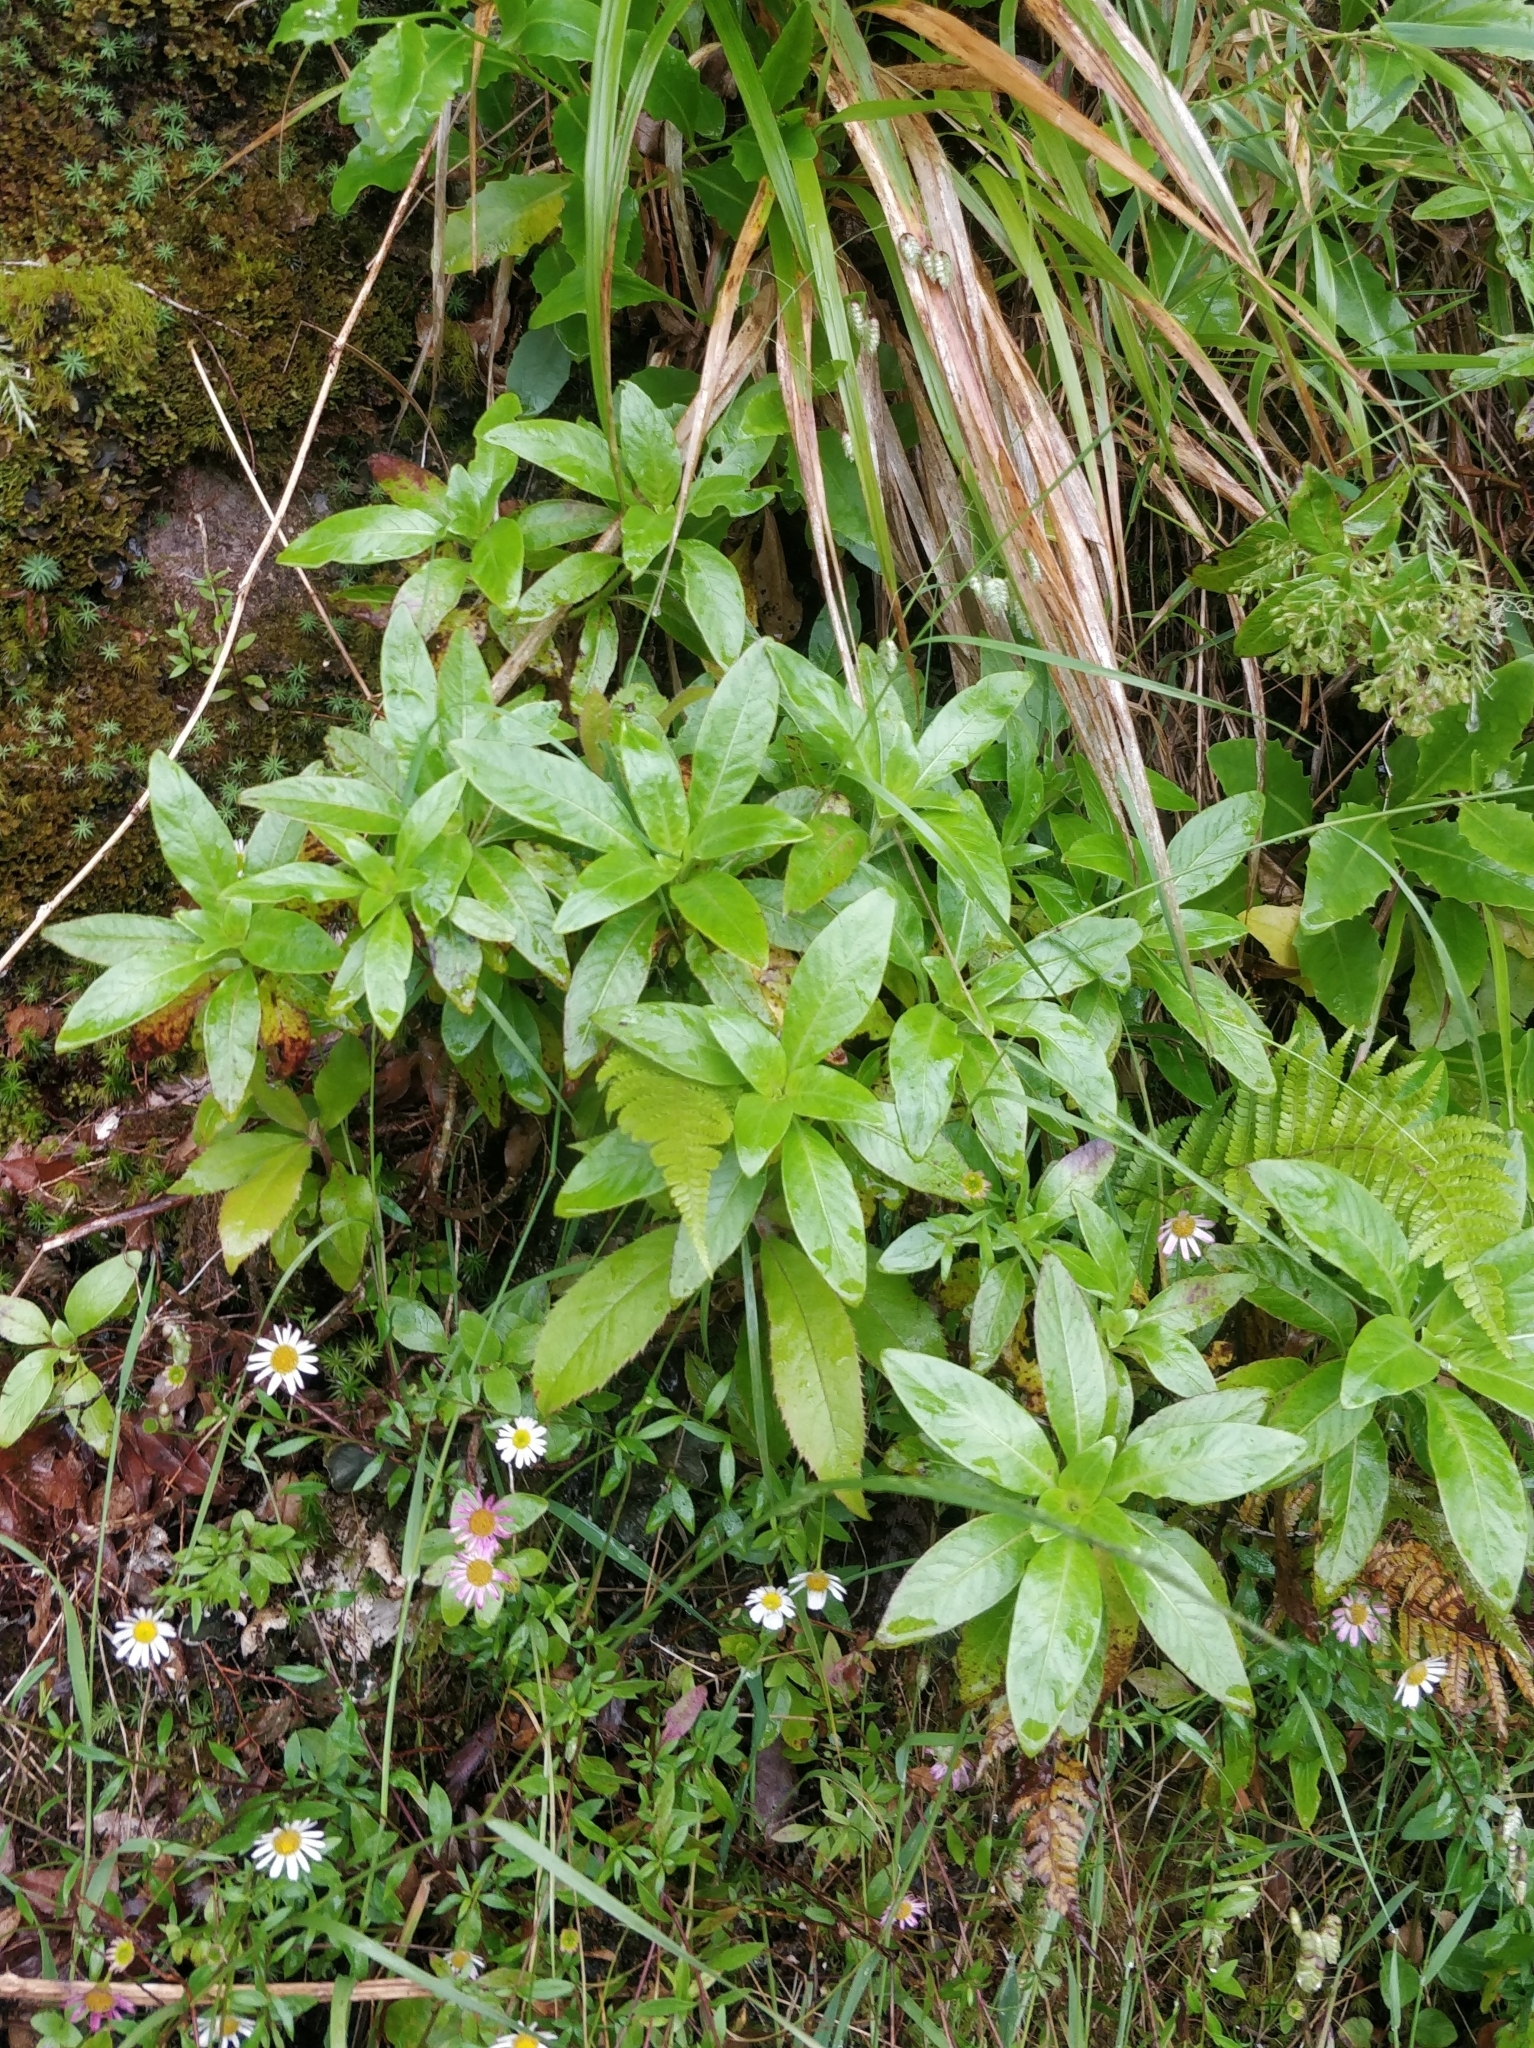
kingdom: Plantae
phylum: Tracheophyta
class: Magnoliopsida
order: Gentianales
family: Rubiaceae
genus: Phyllis
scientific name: Phyllis nobla
